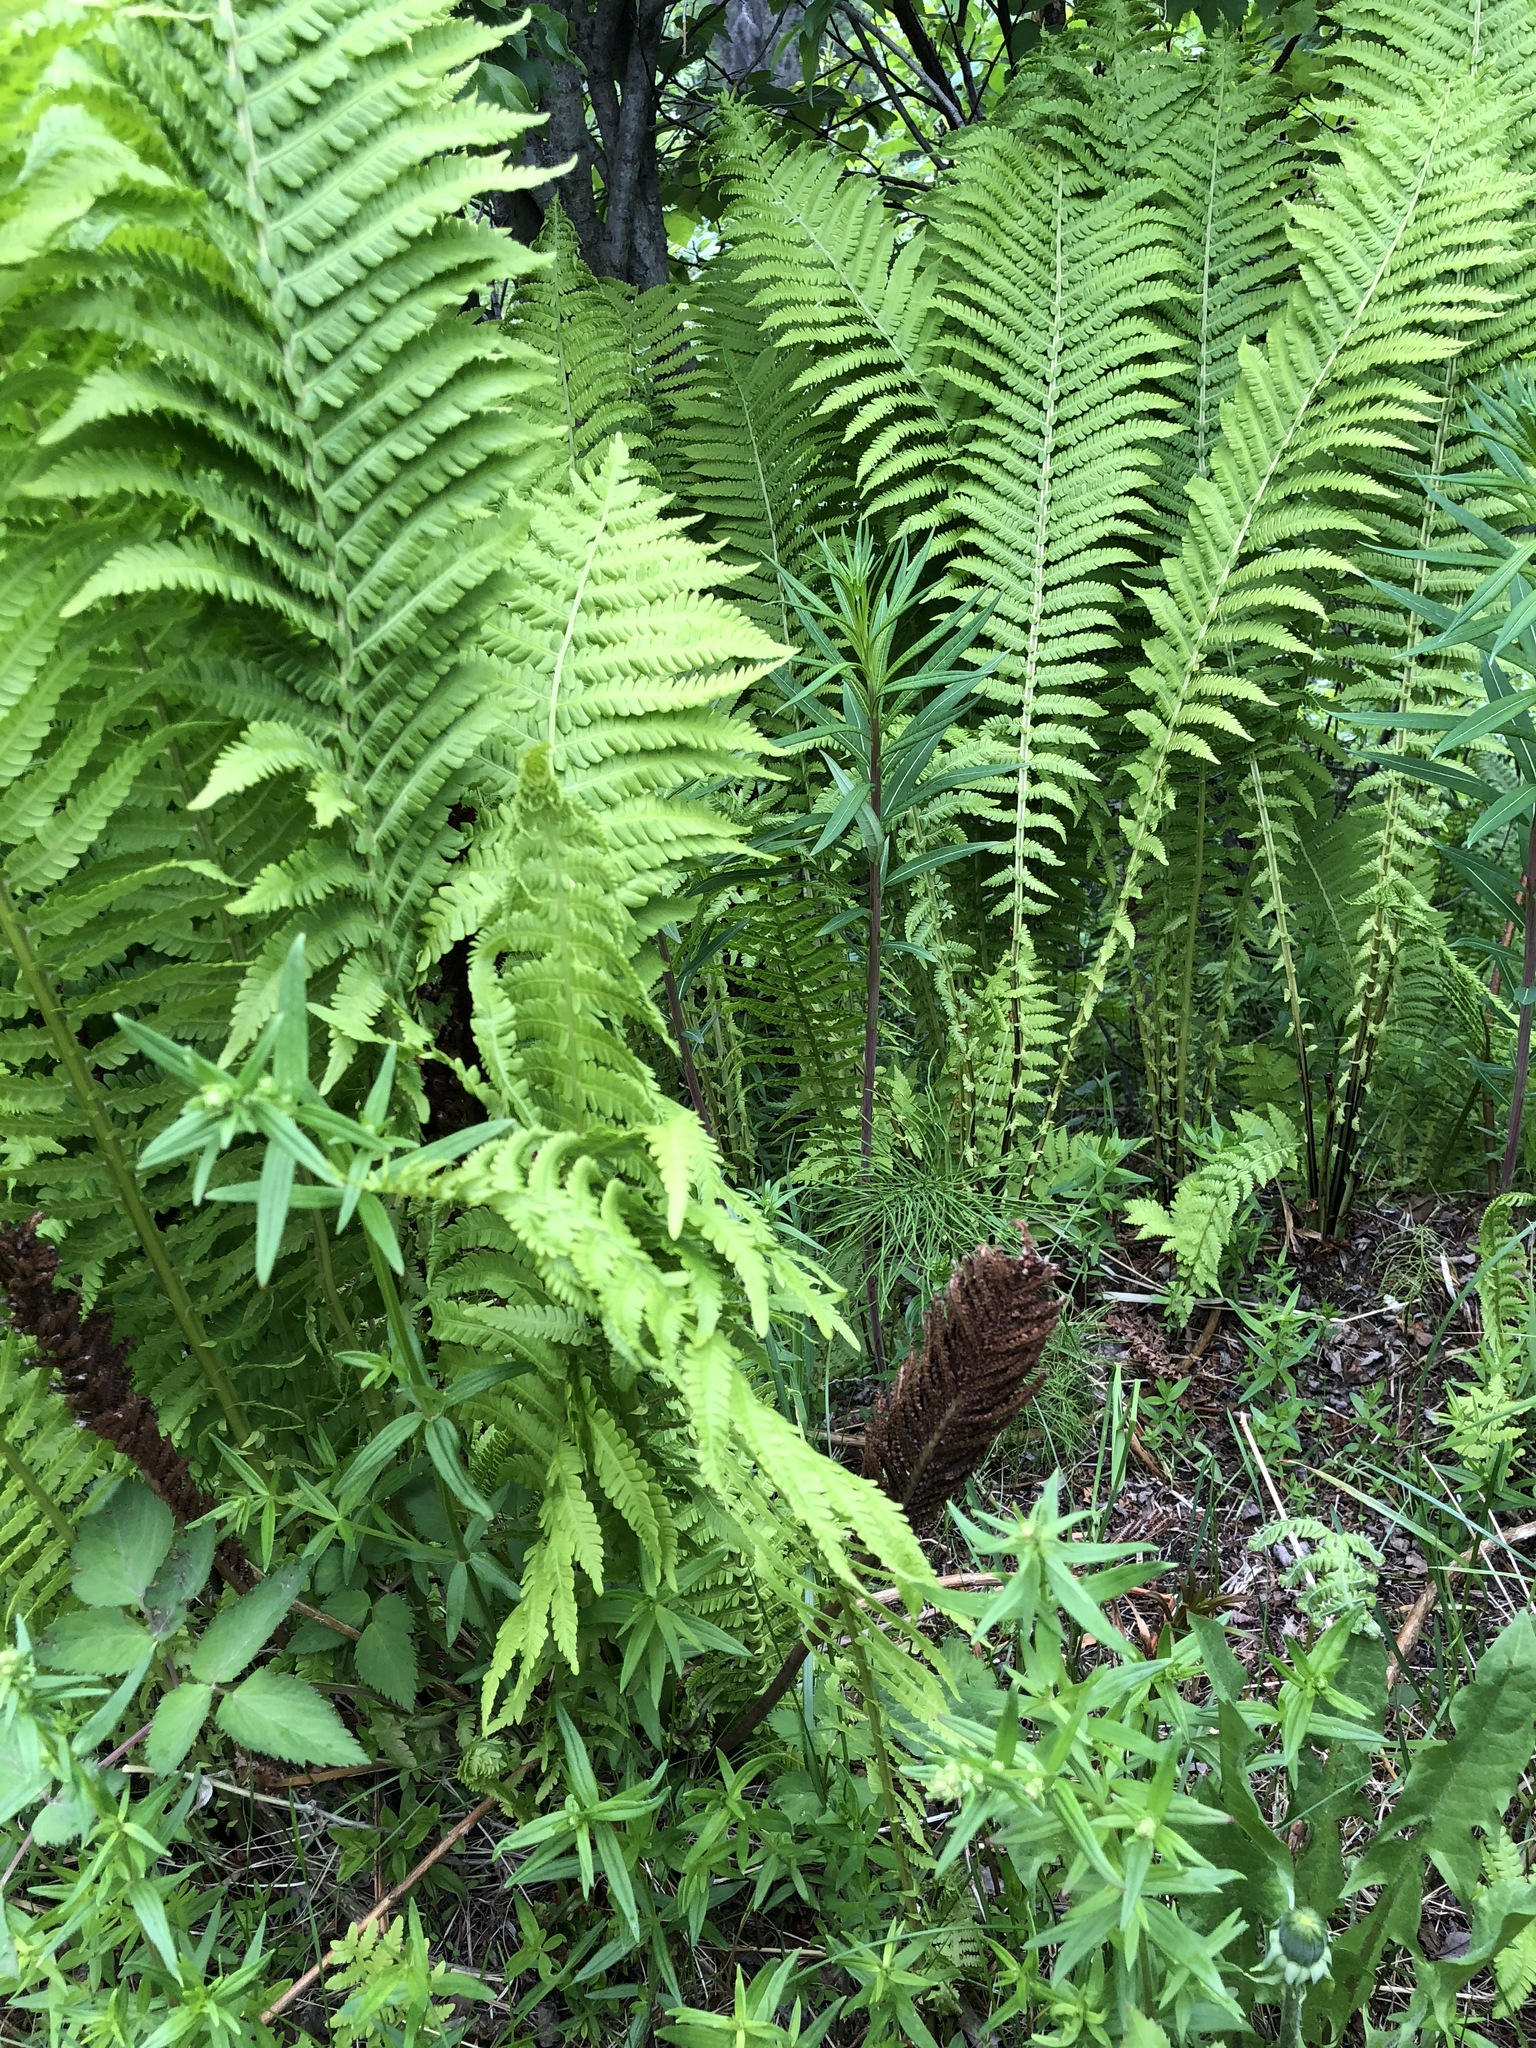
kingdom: Plantae
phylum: Tracheophyta
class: Polypodiopsida
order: Polypodiales
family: Onocleaceae
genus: Matteuccia
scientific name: Matteuccia struthiopteris
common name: Ostrich fern
